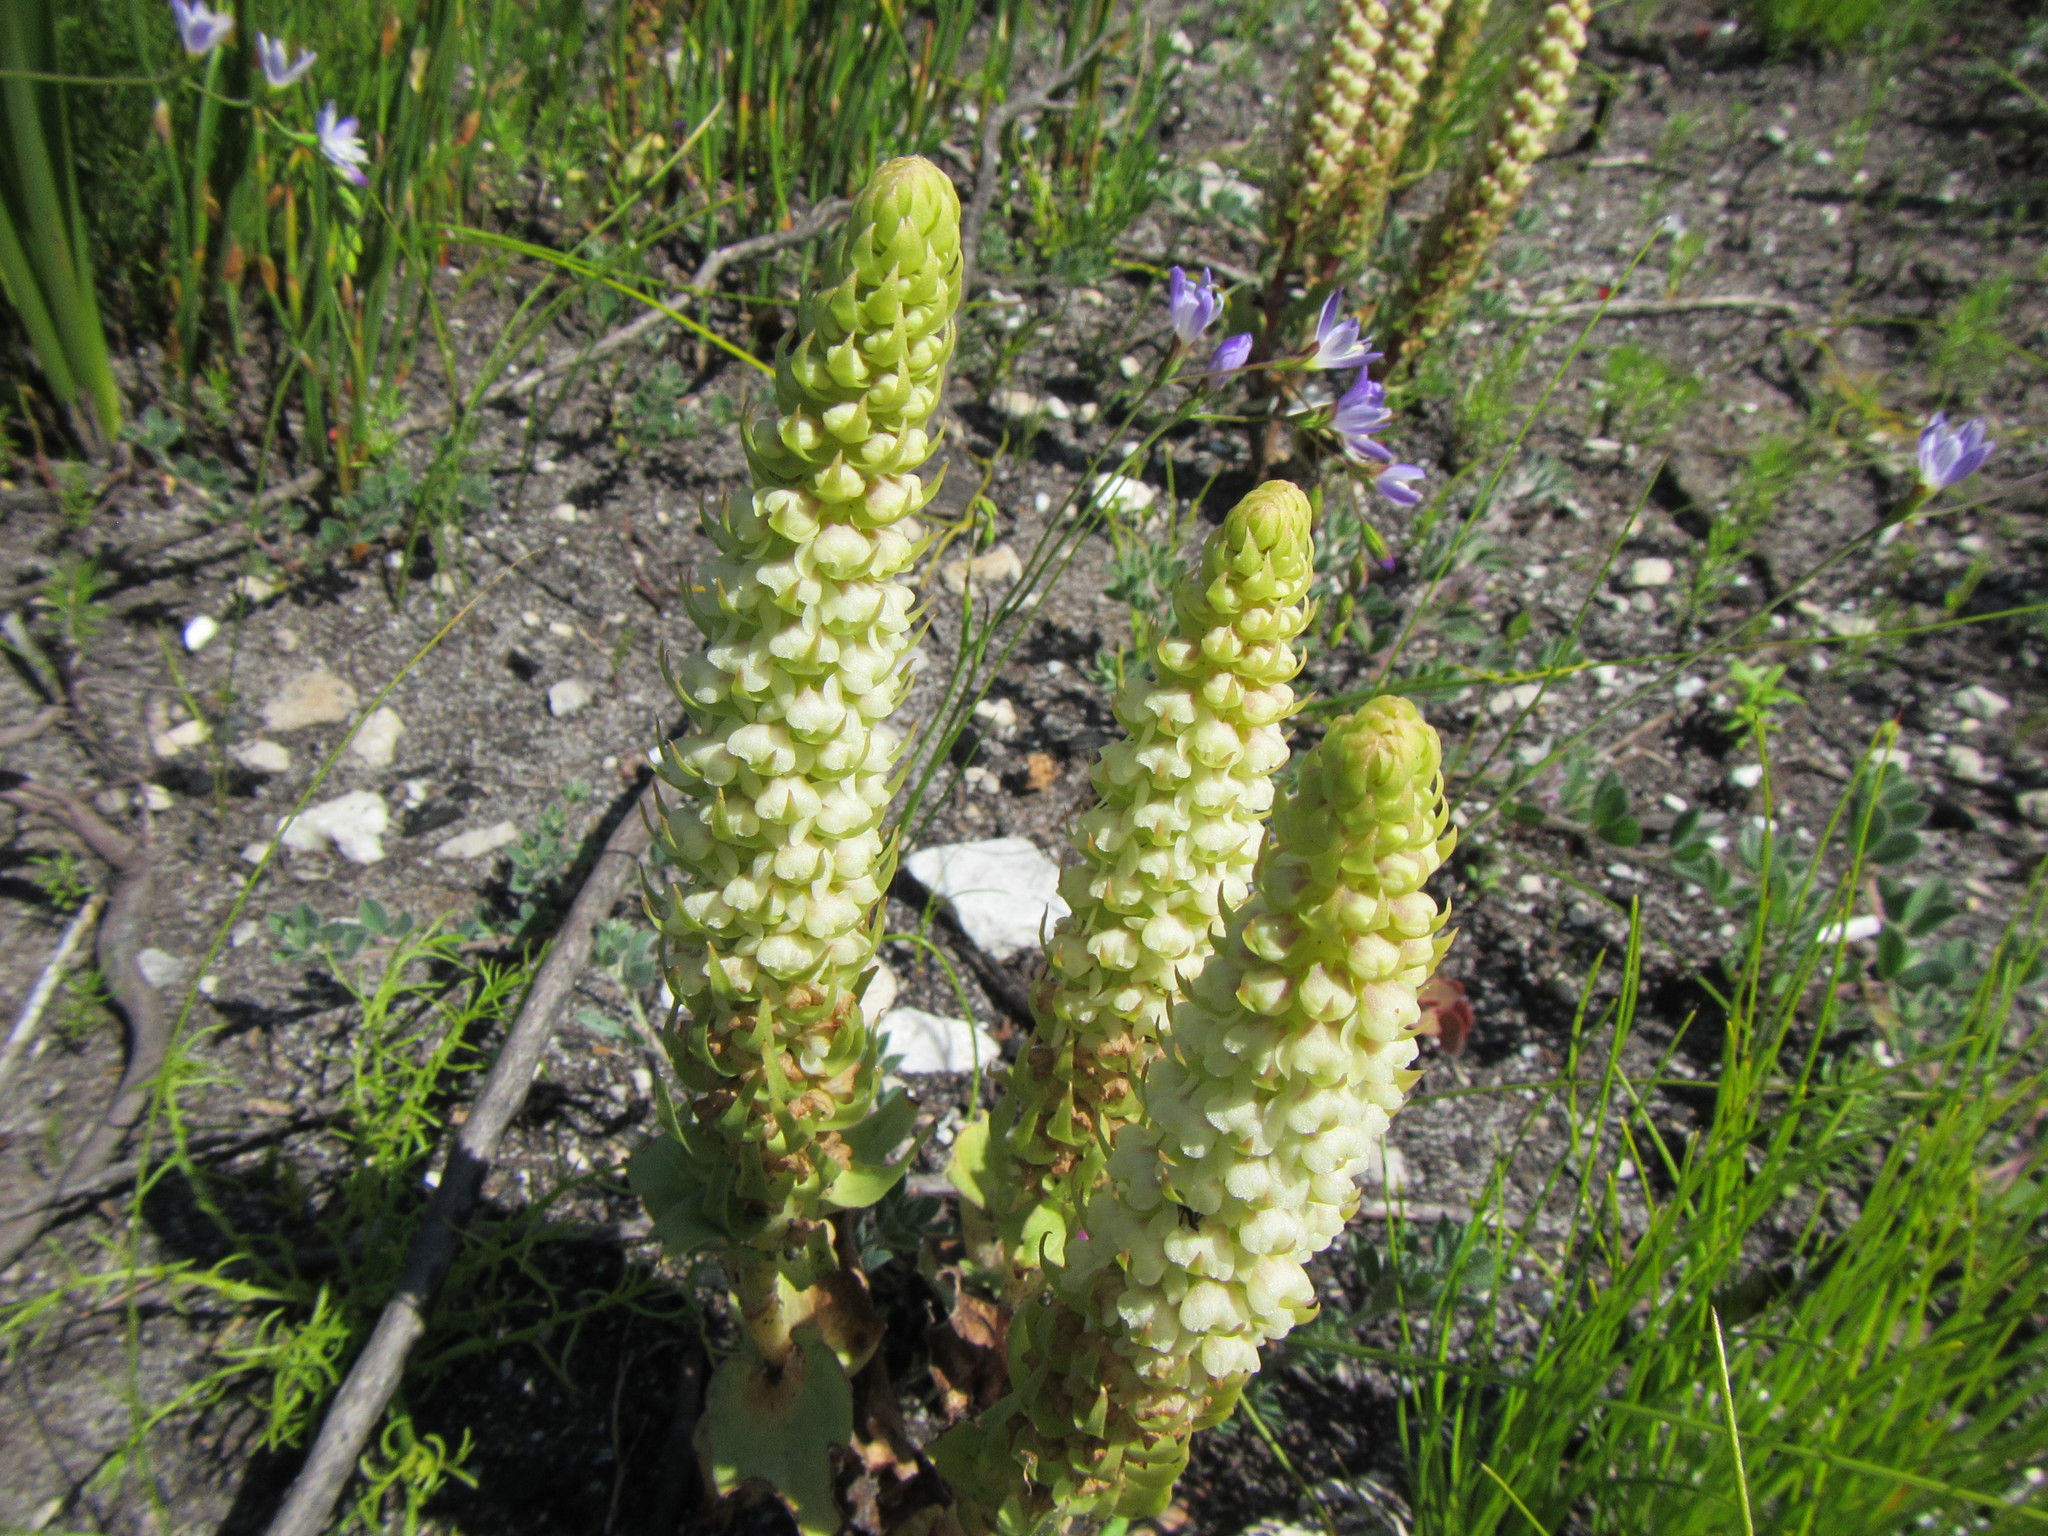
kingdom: Plantae
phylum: Tracheophyta
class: Liliopsida
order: Asparagales
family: Orchidaceae
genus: Satyrium
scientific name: Satyrium bicallosum
